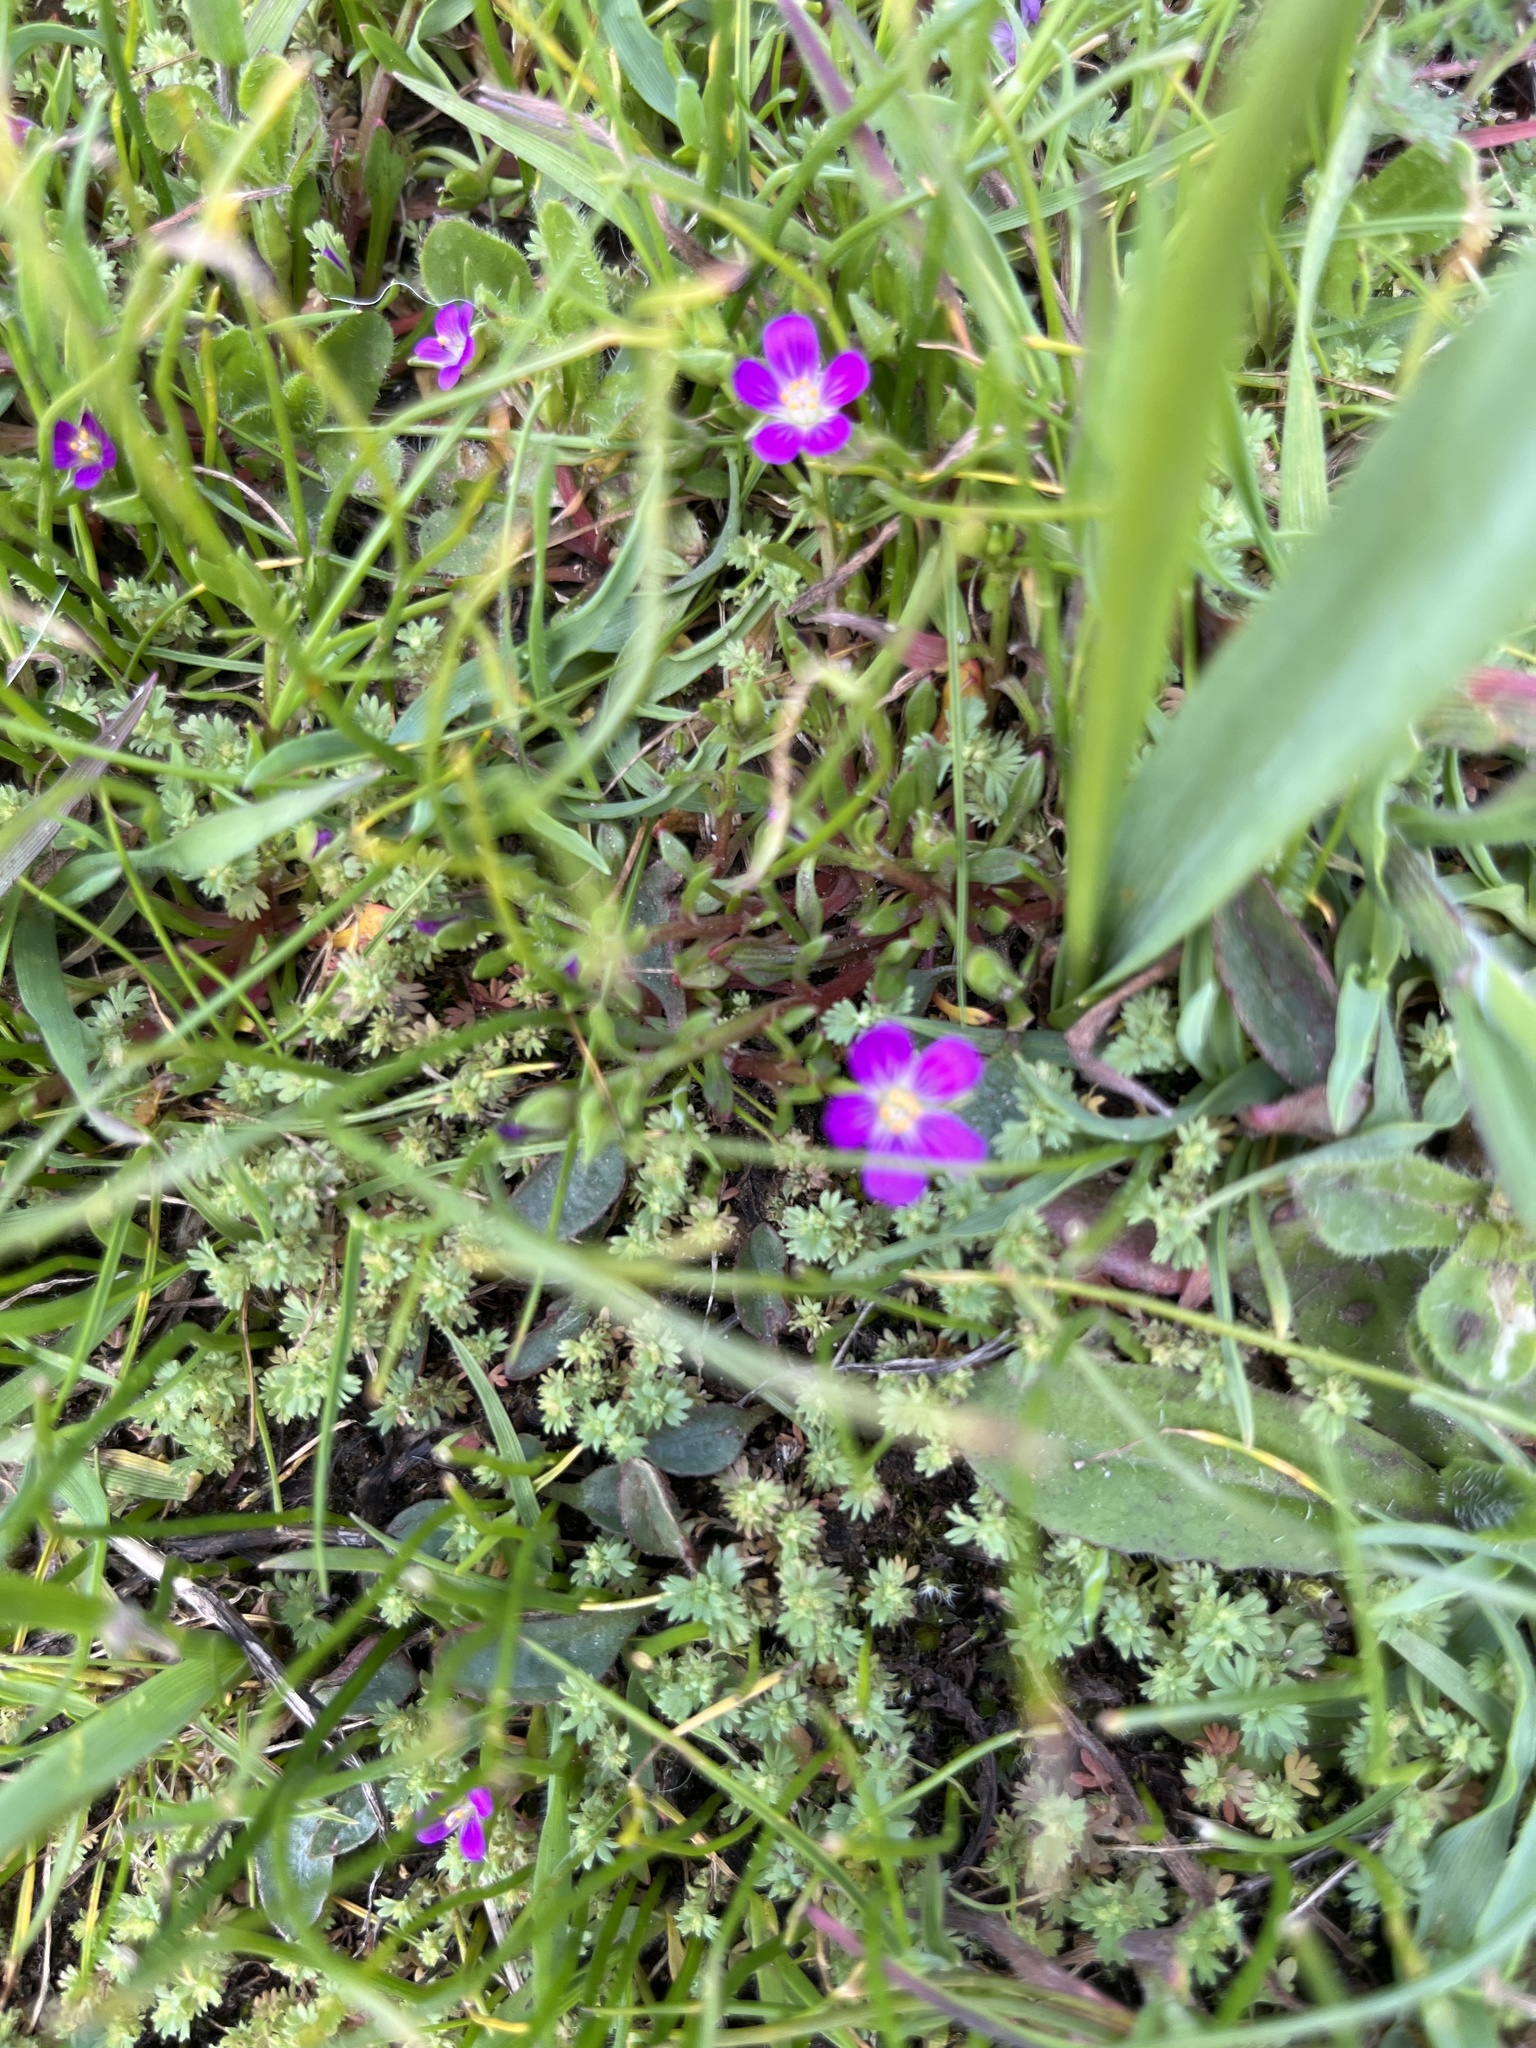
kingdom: Plantae
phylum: Tracheophyta
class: Magnoliopsida
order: Caryophyllales
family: Montiaceae
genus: Calandrinia
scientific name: Calandrinia menziesii
